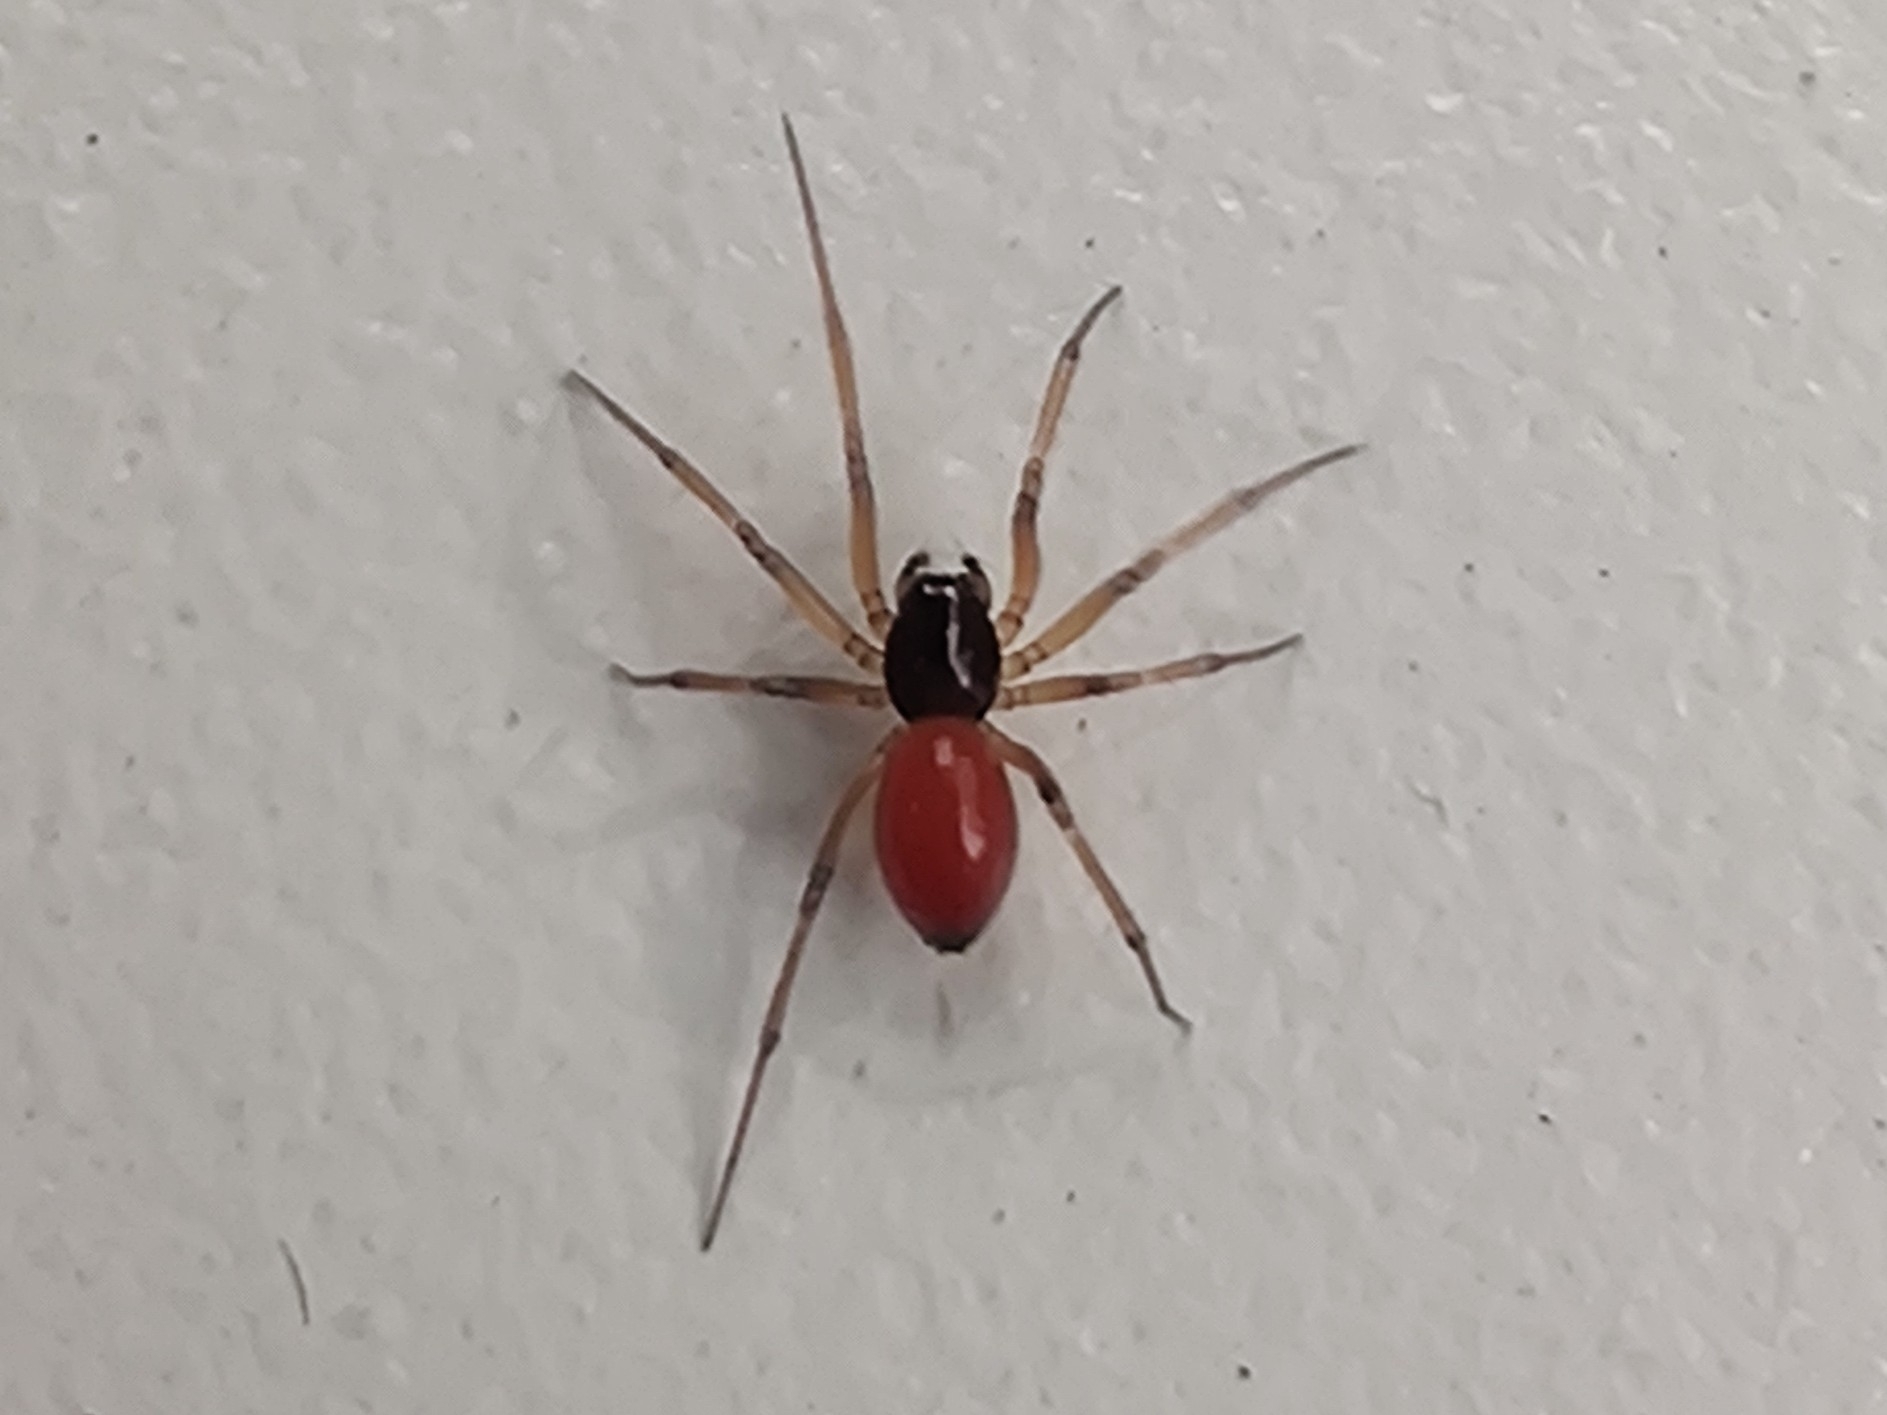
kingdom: Animalia
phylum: Arthropoda
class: Arachnida
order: Araneae
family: Linyphiidae
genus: Ostearius
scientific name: Ostearius melanopygius
